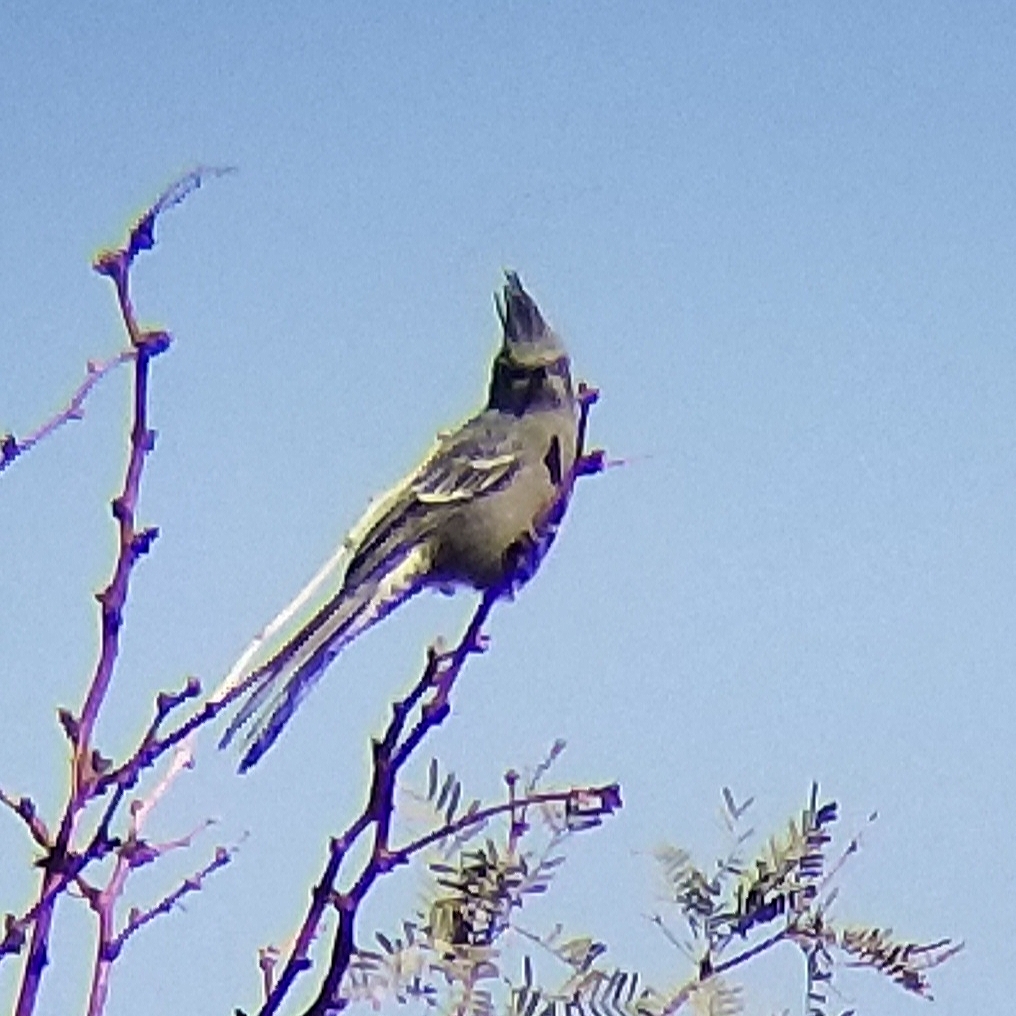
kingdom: Animalia
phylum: Chordata
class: Aves
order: Passeriformes
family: Ptilogonatidae
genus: Phainopepla
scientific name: Phainopepla nitens
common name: Phainopepla
